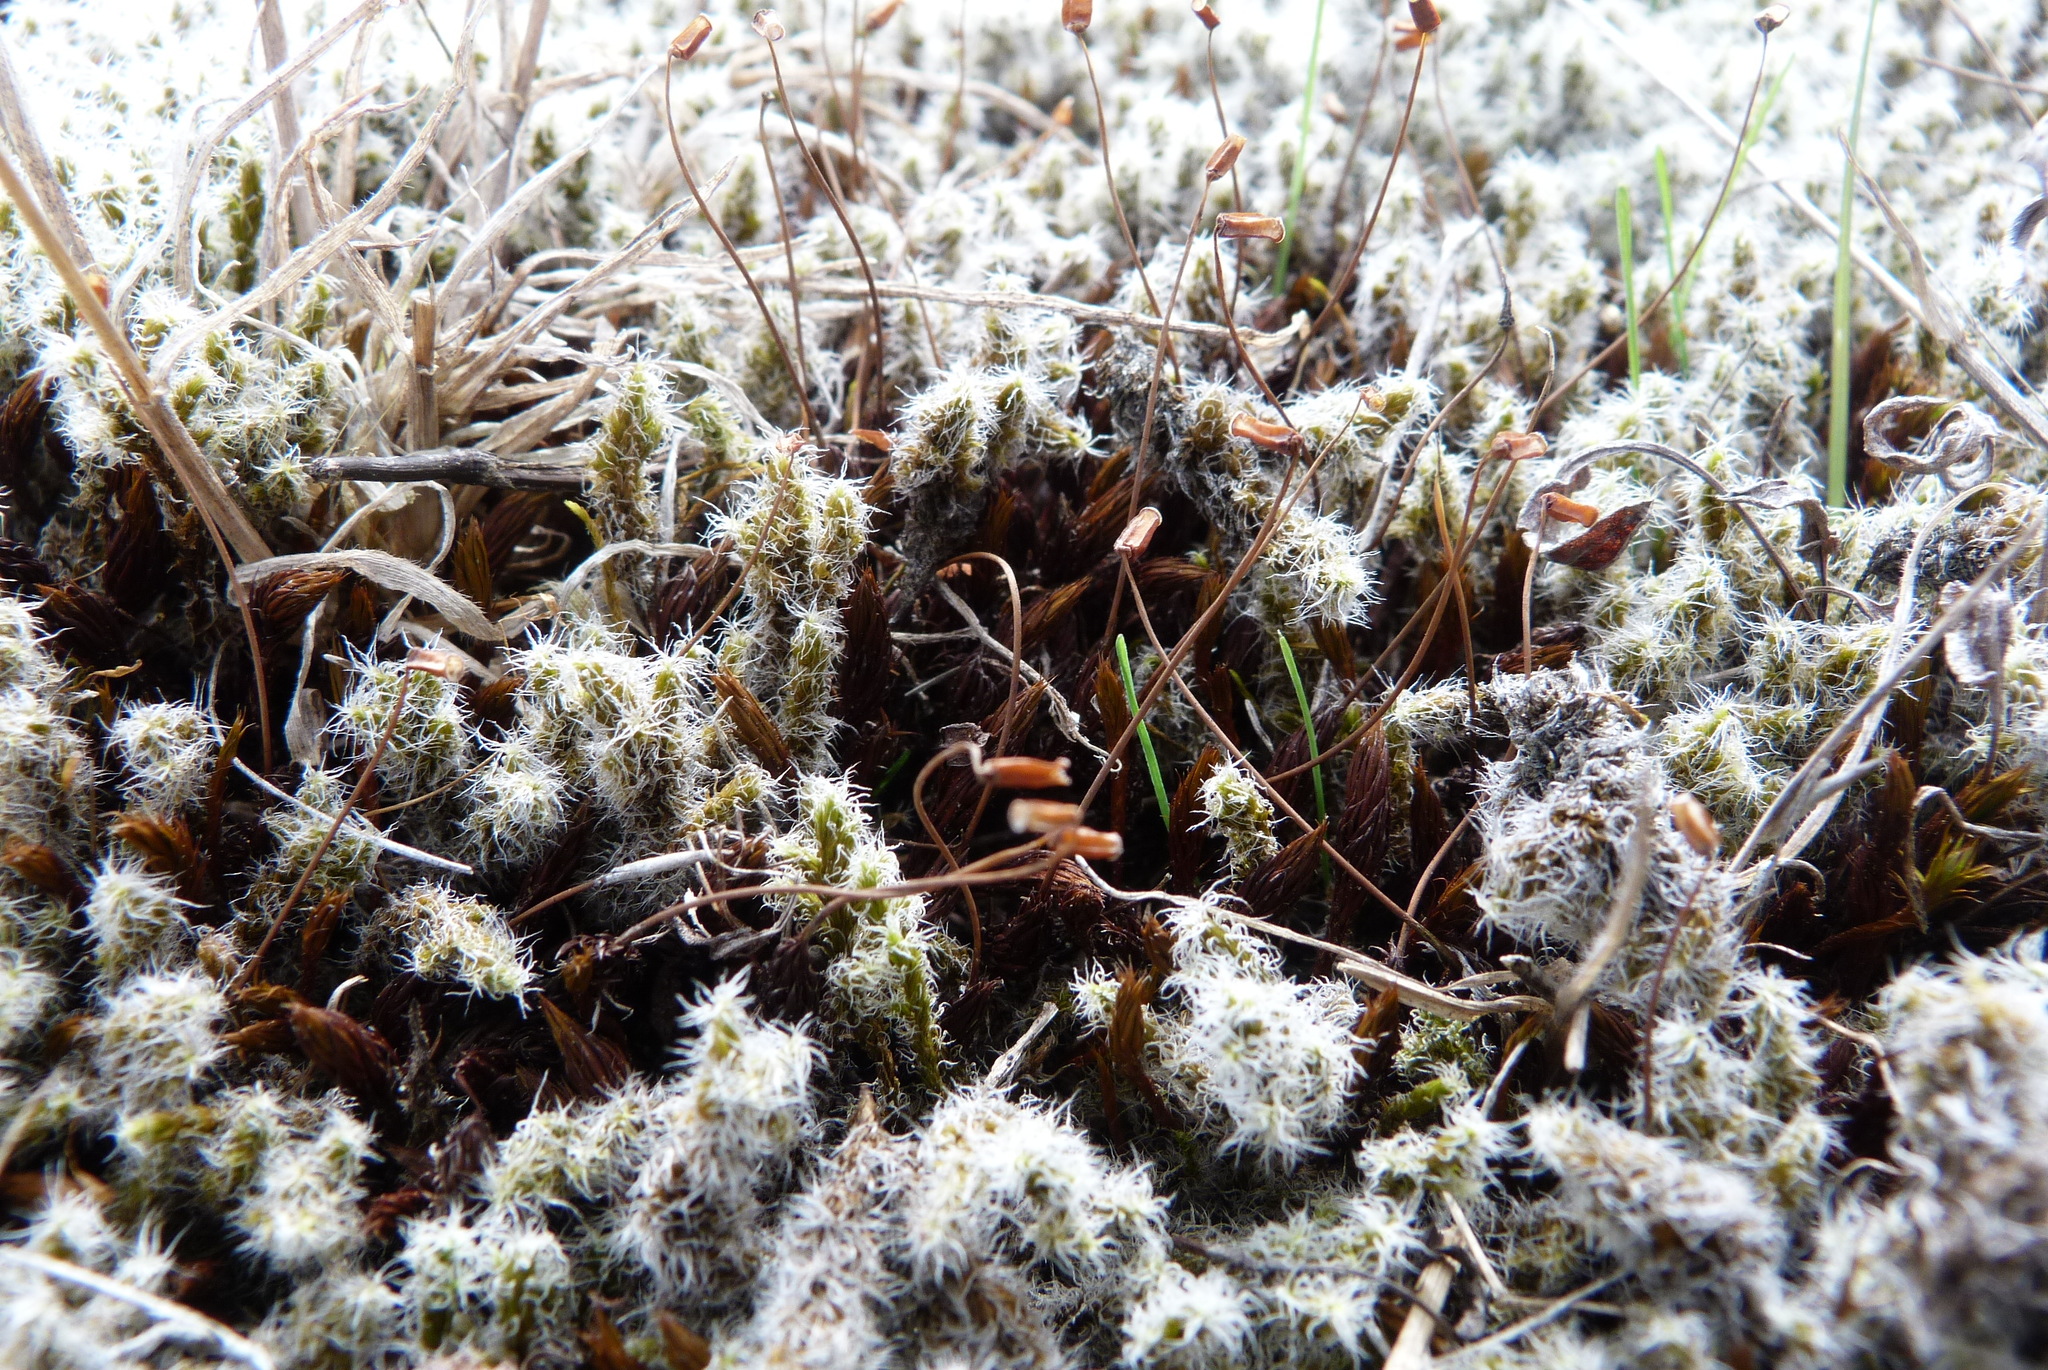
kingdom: Plantae
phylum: Bryophyta
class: Polytrichopsida
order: Polytrichales
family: Polytrichaceae
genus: Polytrichum
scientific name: Polytrichum juniperinum
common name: Juniper haircap moss
